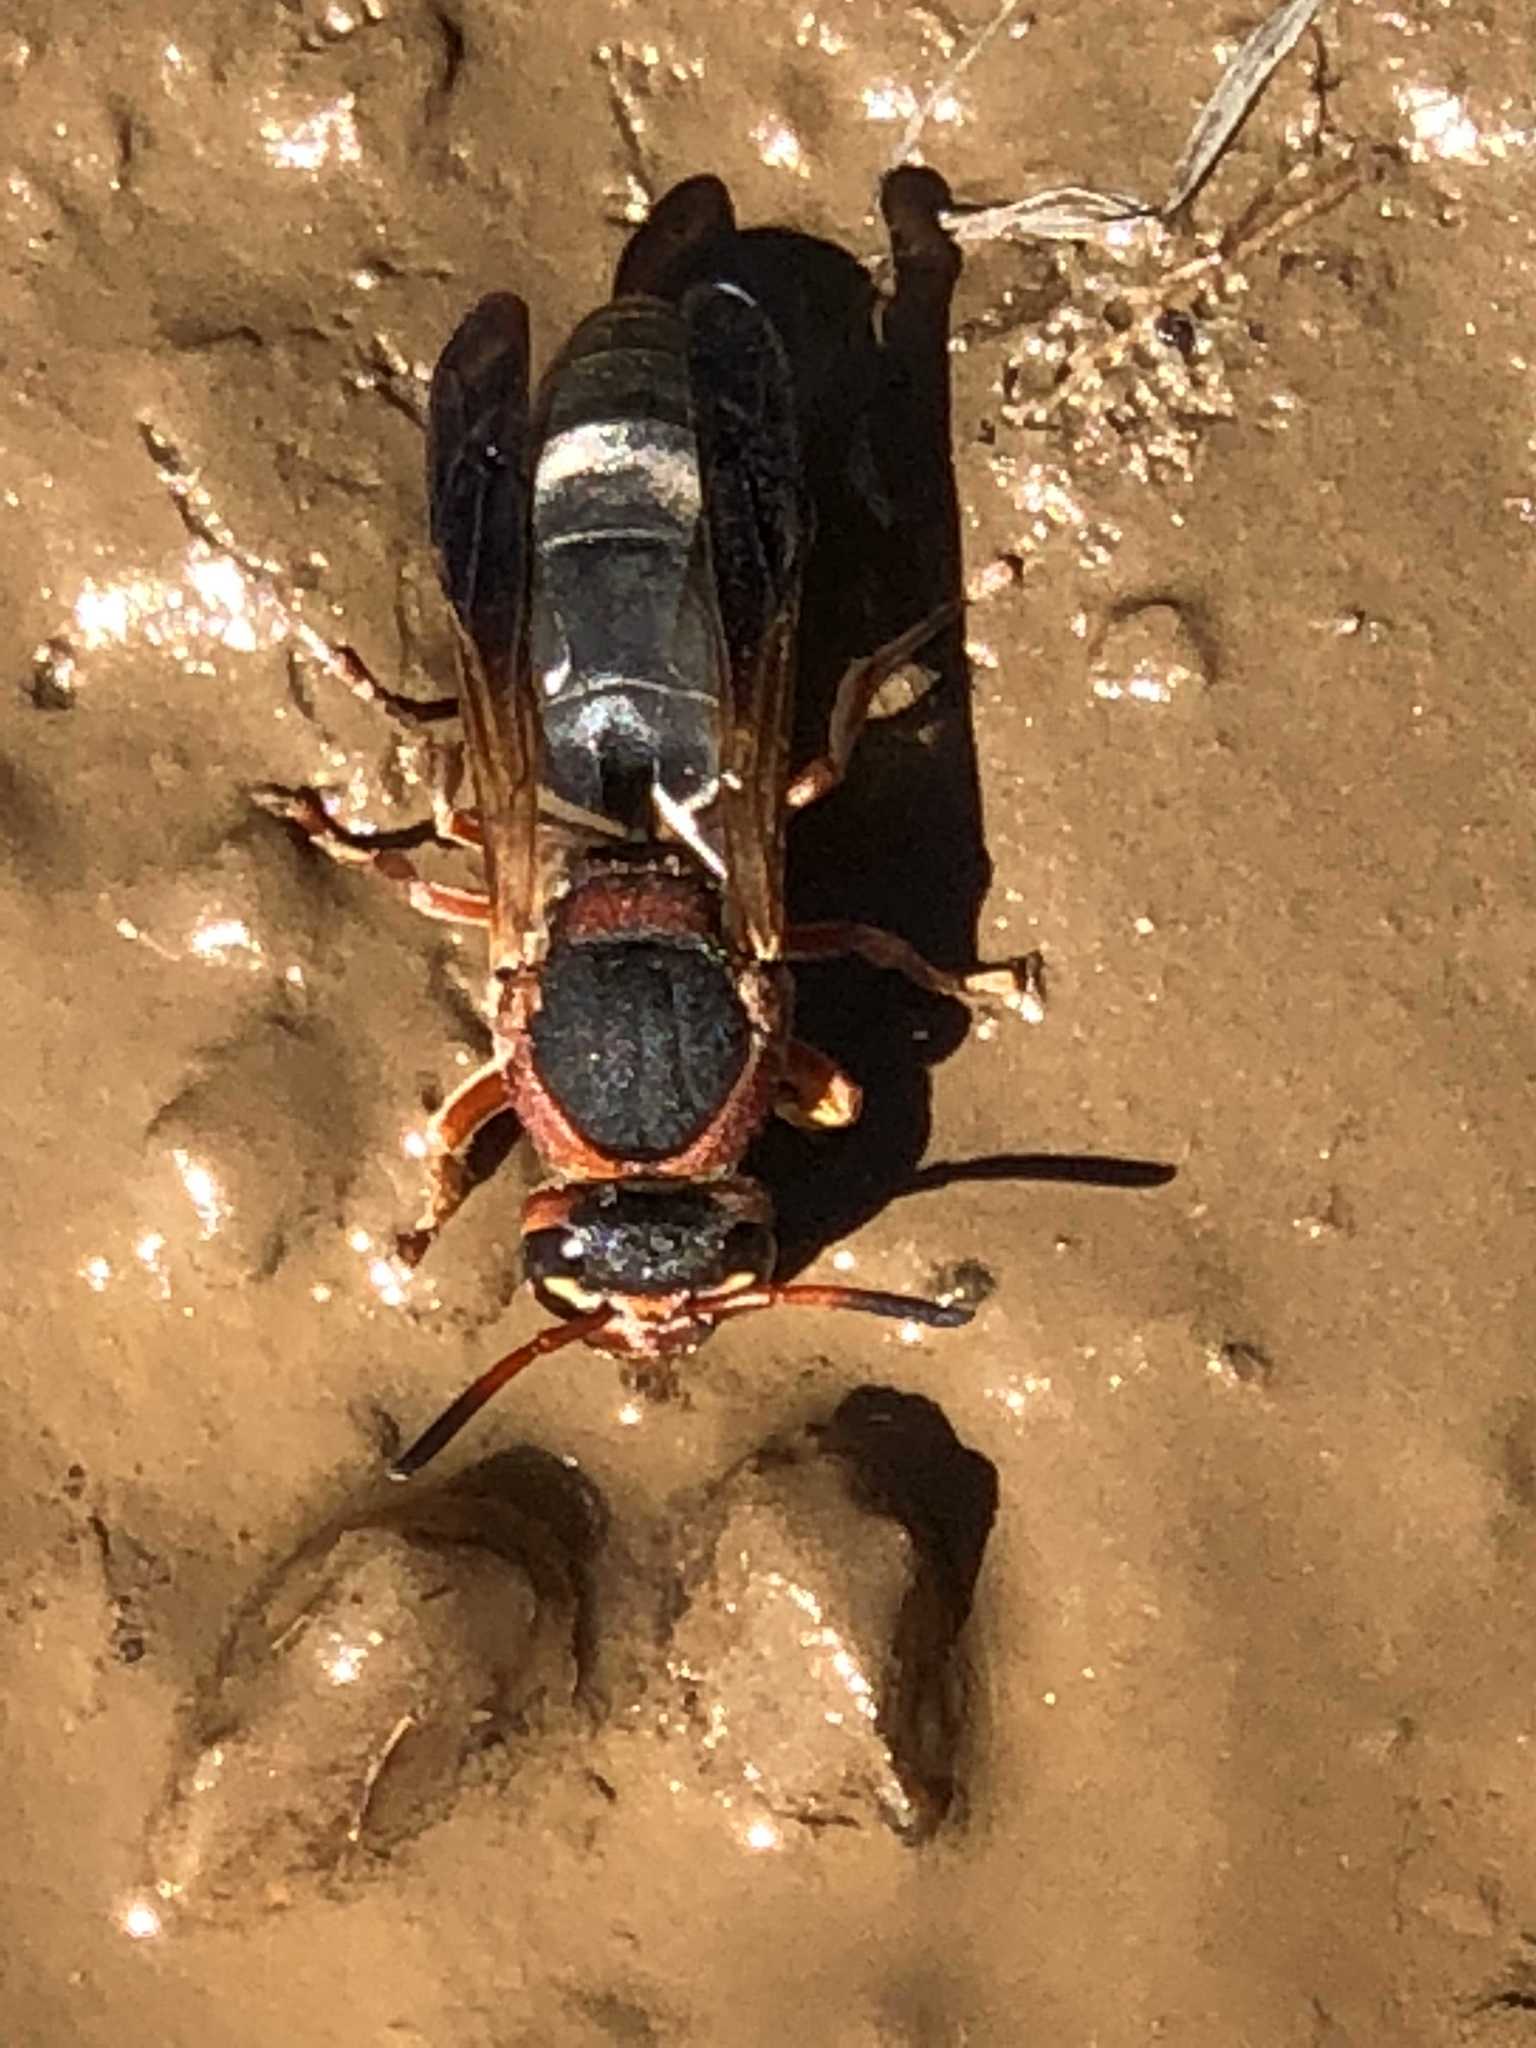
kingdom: Animalia
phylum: Arthropoda
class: Insecta
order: Hymenoptera
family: Eumenidae
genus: Paravespa
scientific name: Paravespa
